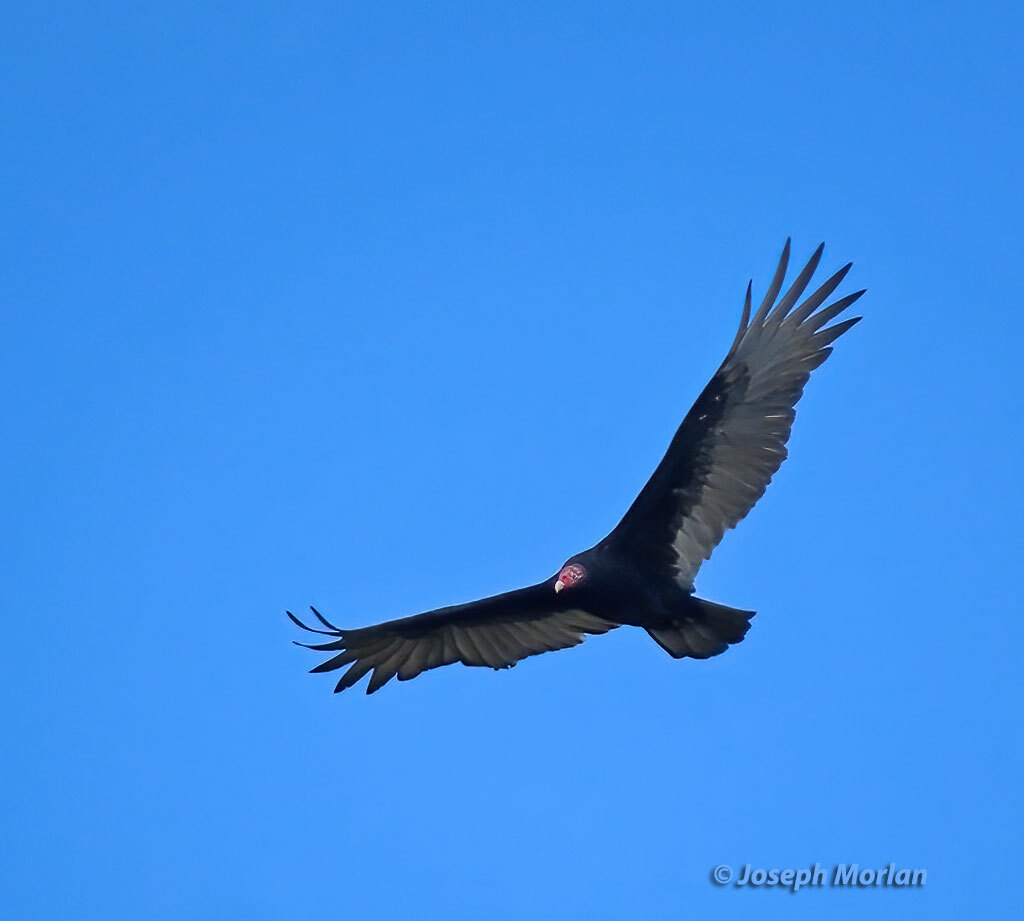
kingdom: Animalia
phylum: Chordata
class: Aves
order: Accipitriformes
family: Cathartidae
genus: Cathartes
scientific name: Cathartes aura
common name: Turkey vulture
